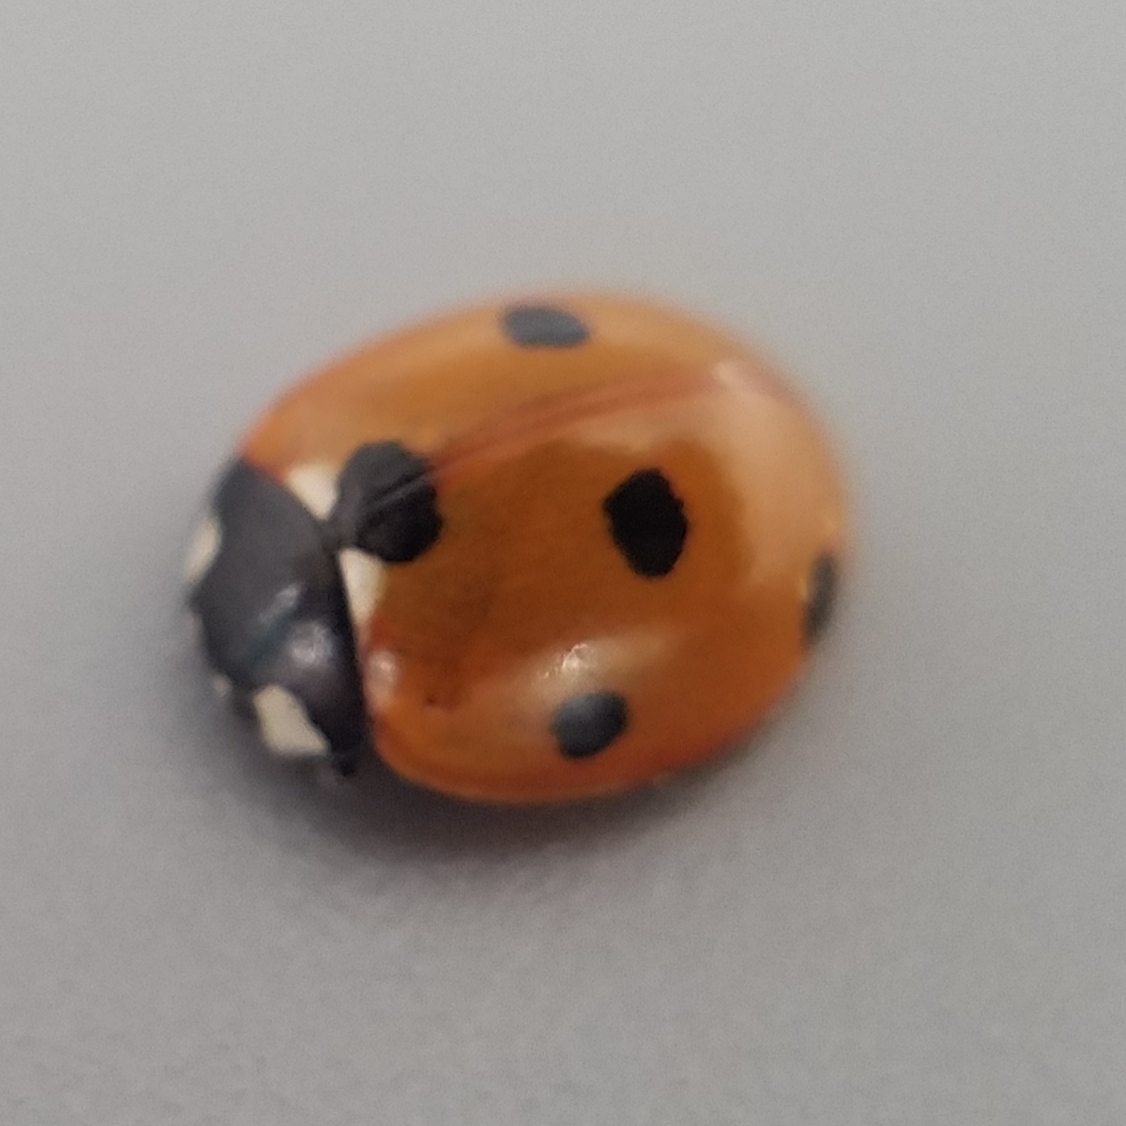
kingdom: Animalia
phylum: Arthropoda
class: Insecta
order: Coleoptera
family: Coccinellidae
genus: Coccinella
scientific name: Coccinella septempunctata
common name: Sevenspotted lady beetle
